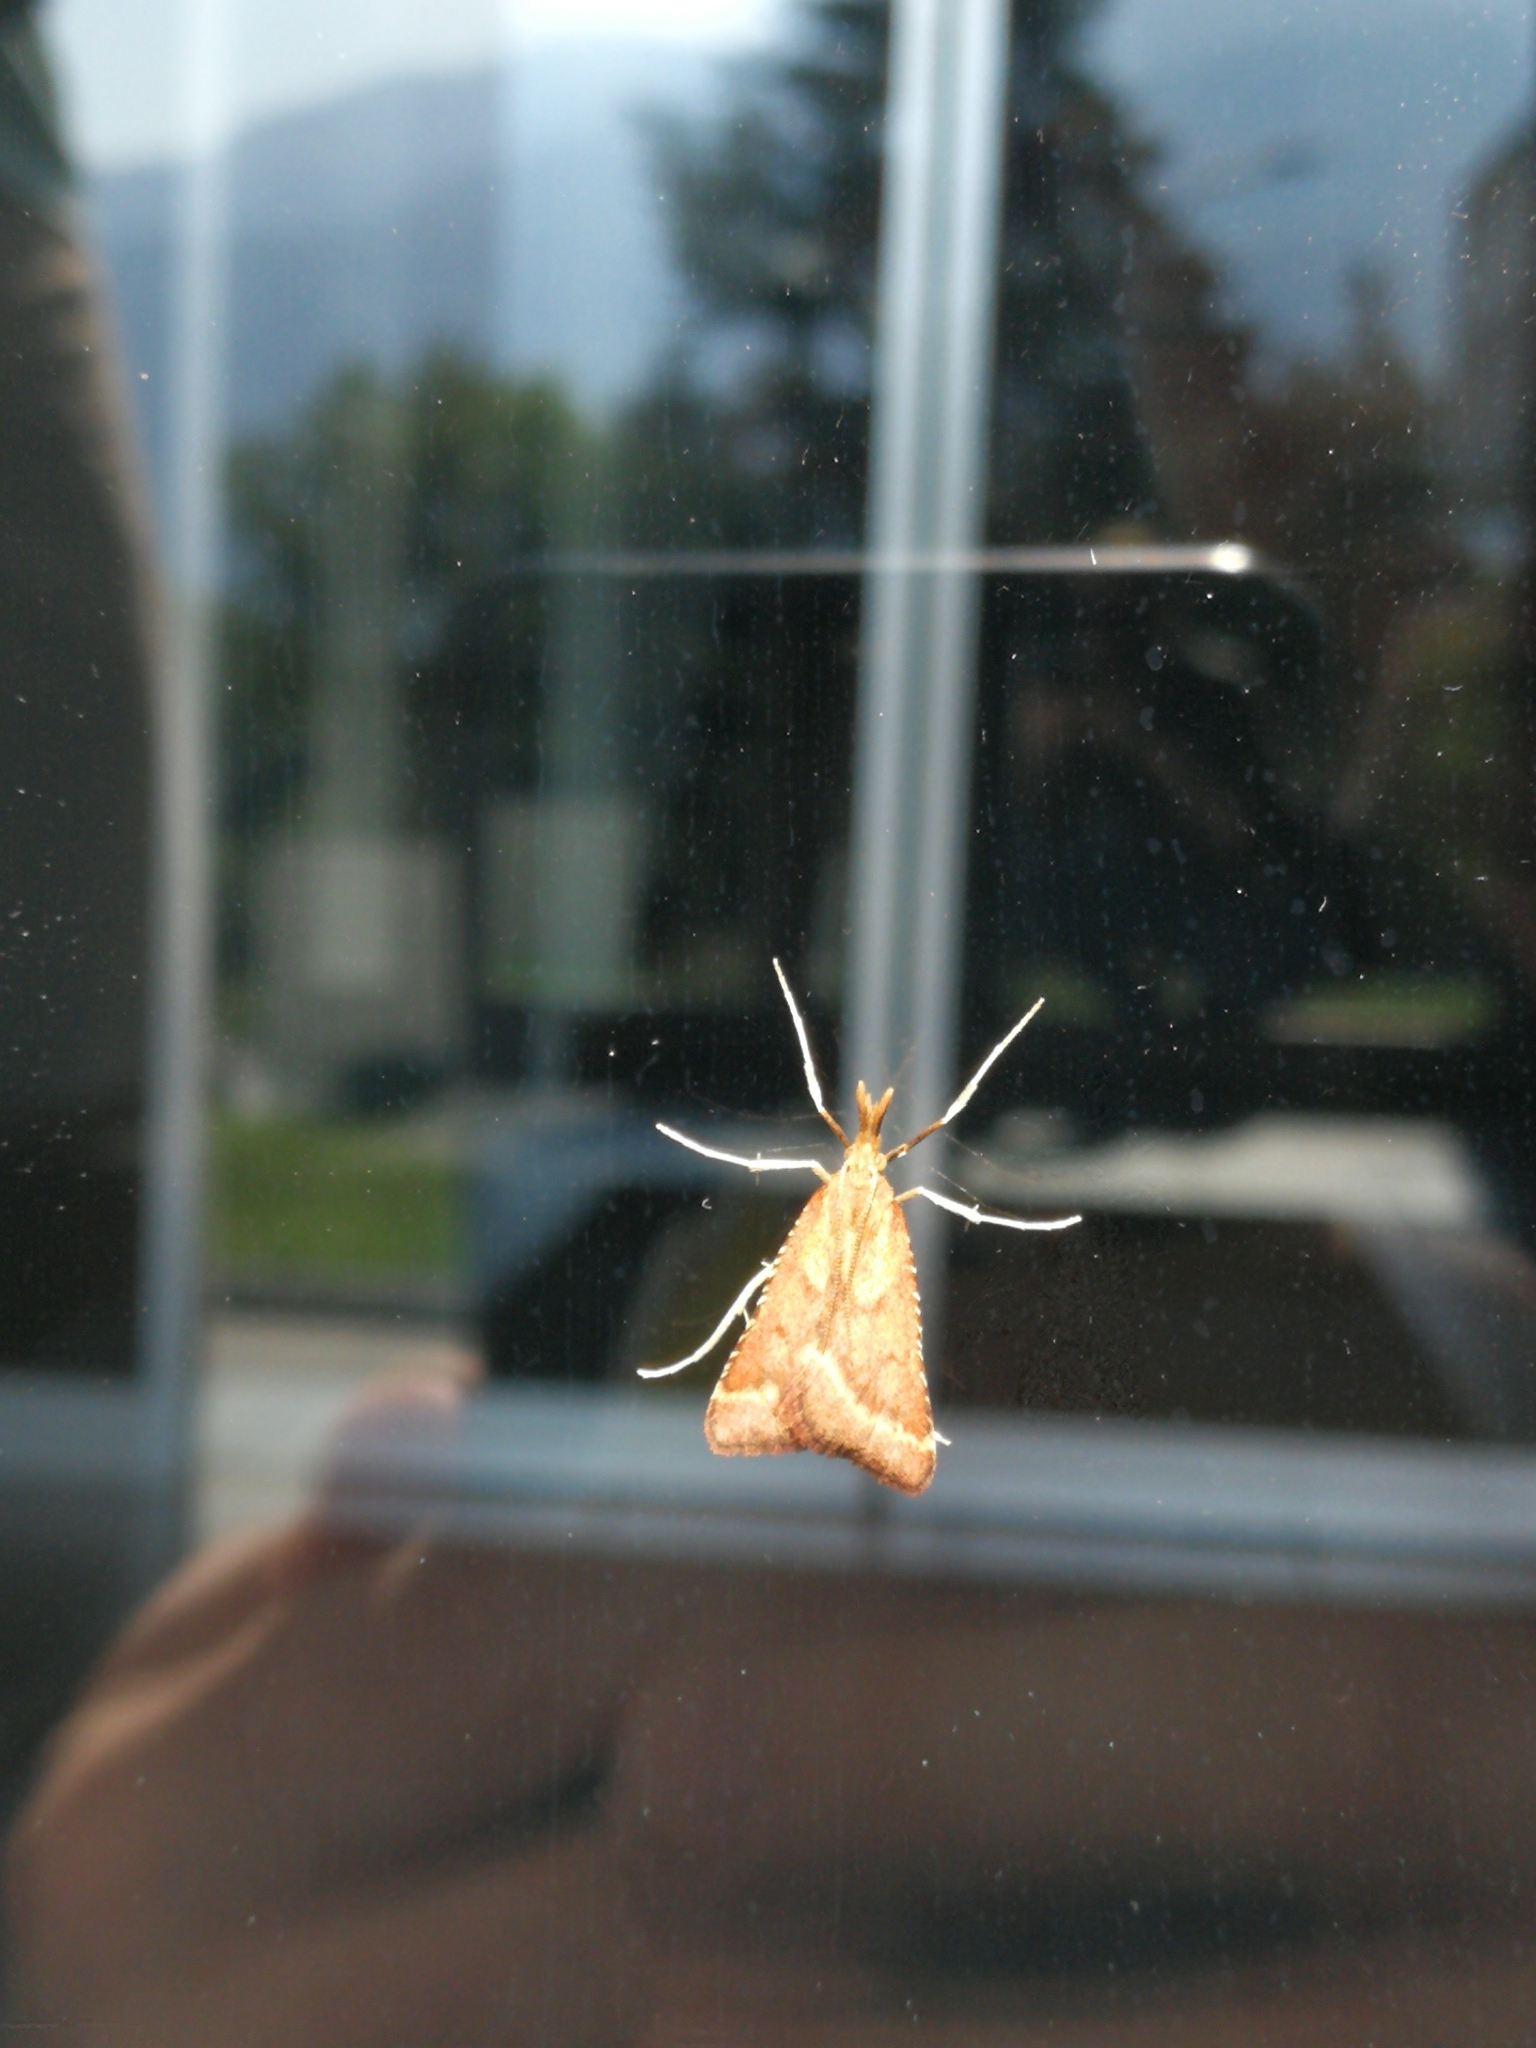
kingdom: Animalia
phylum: Arthropoda
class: Insecta
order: Lepidoptera
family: Pyralidae
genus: Synaphe
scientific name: Synaphe punctalis
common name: Long-legged tabby
